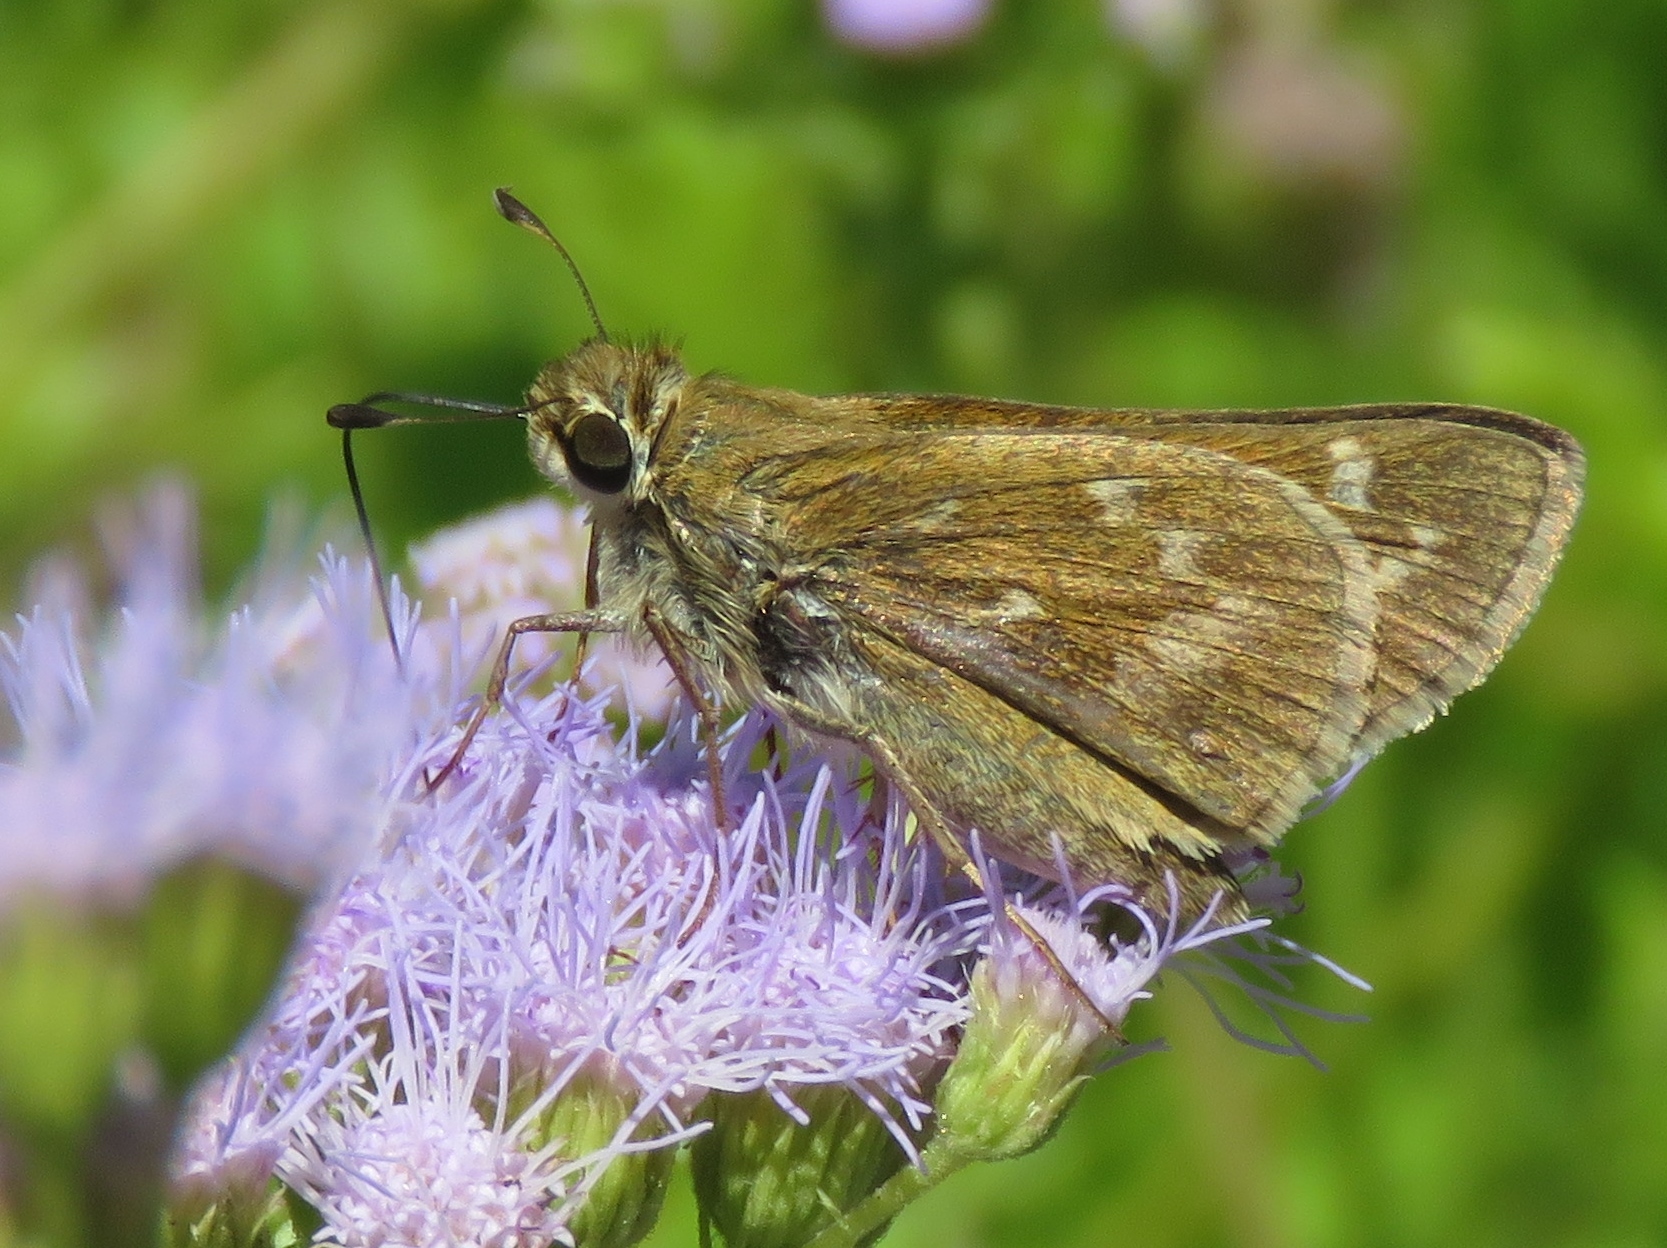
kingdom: Animalia
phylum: Arthropoda
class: Insecta
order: Lepidoptera
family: Hesperiidae
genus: Atalopedes
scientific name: Atalopedes
